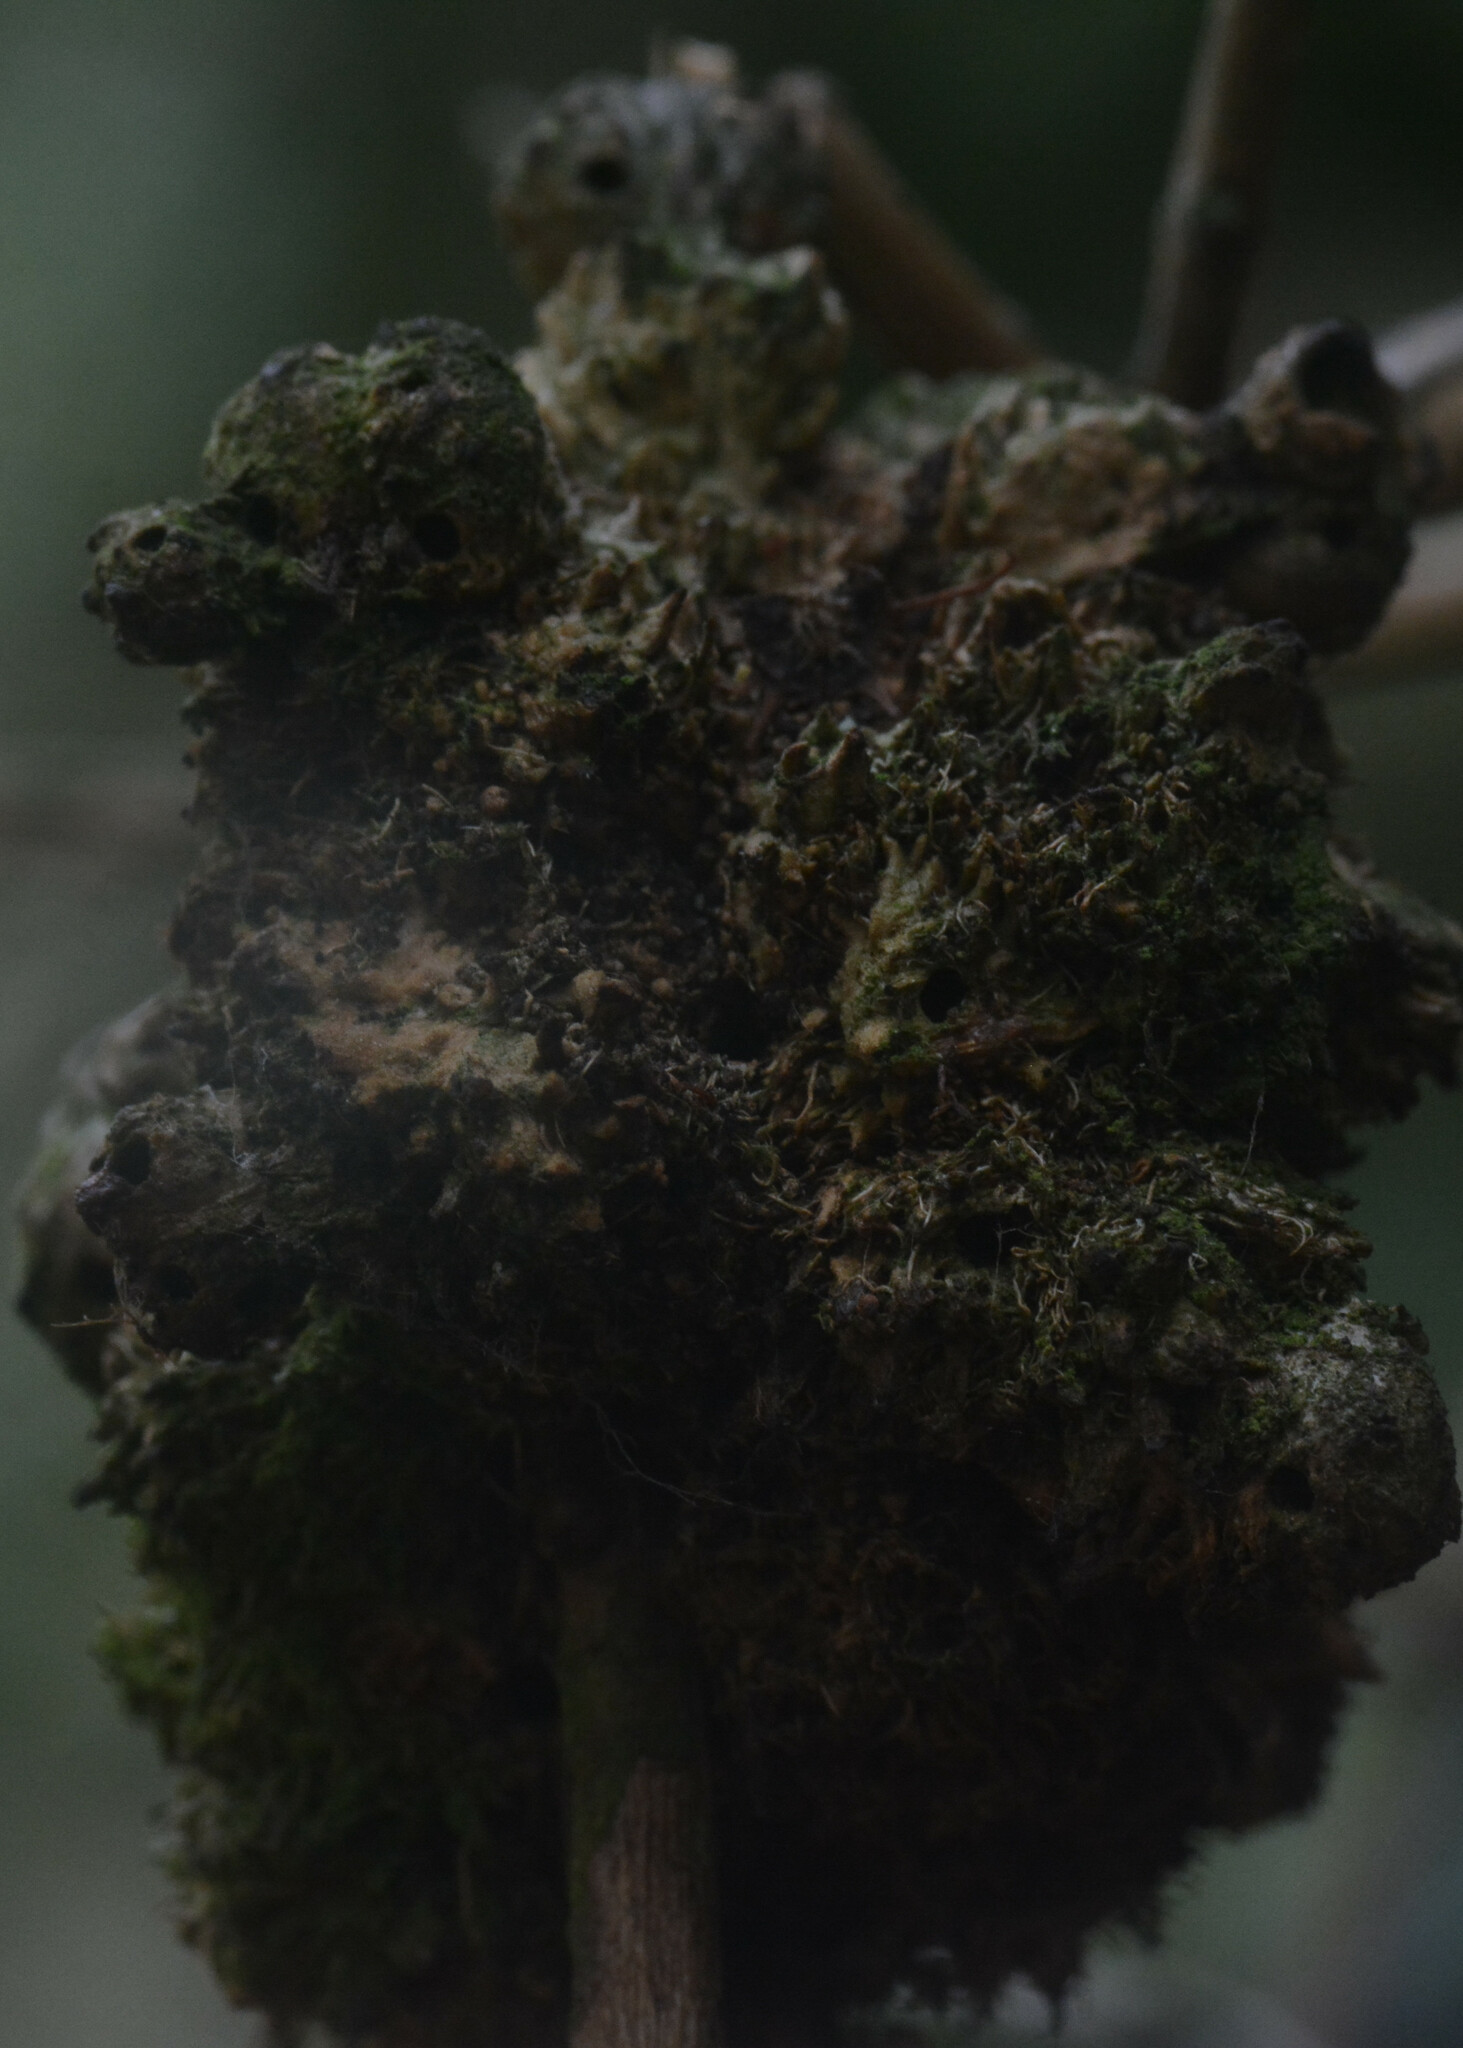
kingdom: Animalia
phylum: Arthropoda
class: Insecta
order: Hymenoptera
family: Cynipidae
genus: Diplolepis
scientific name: Diplolepis rosae
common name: Bedeguar gall
